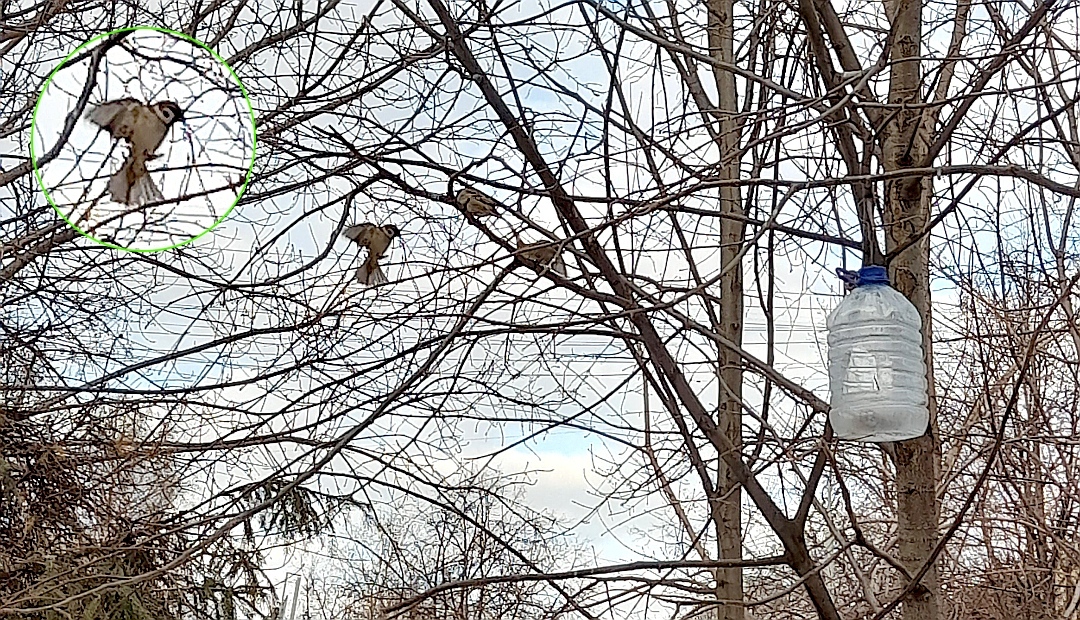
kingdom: Animalia
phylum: Chordata
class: Aves
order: Passeriformes
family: Passeridae
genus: Passer
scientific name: Passer montanus
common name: Eurasian tree sparrow
